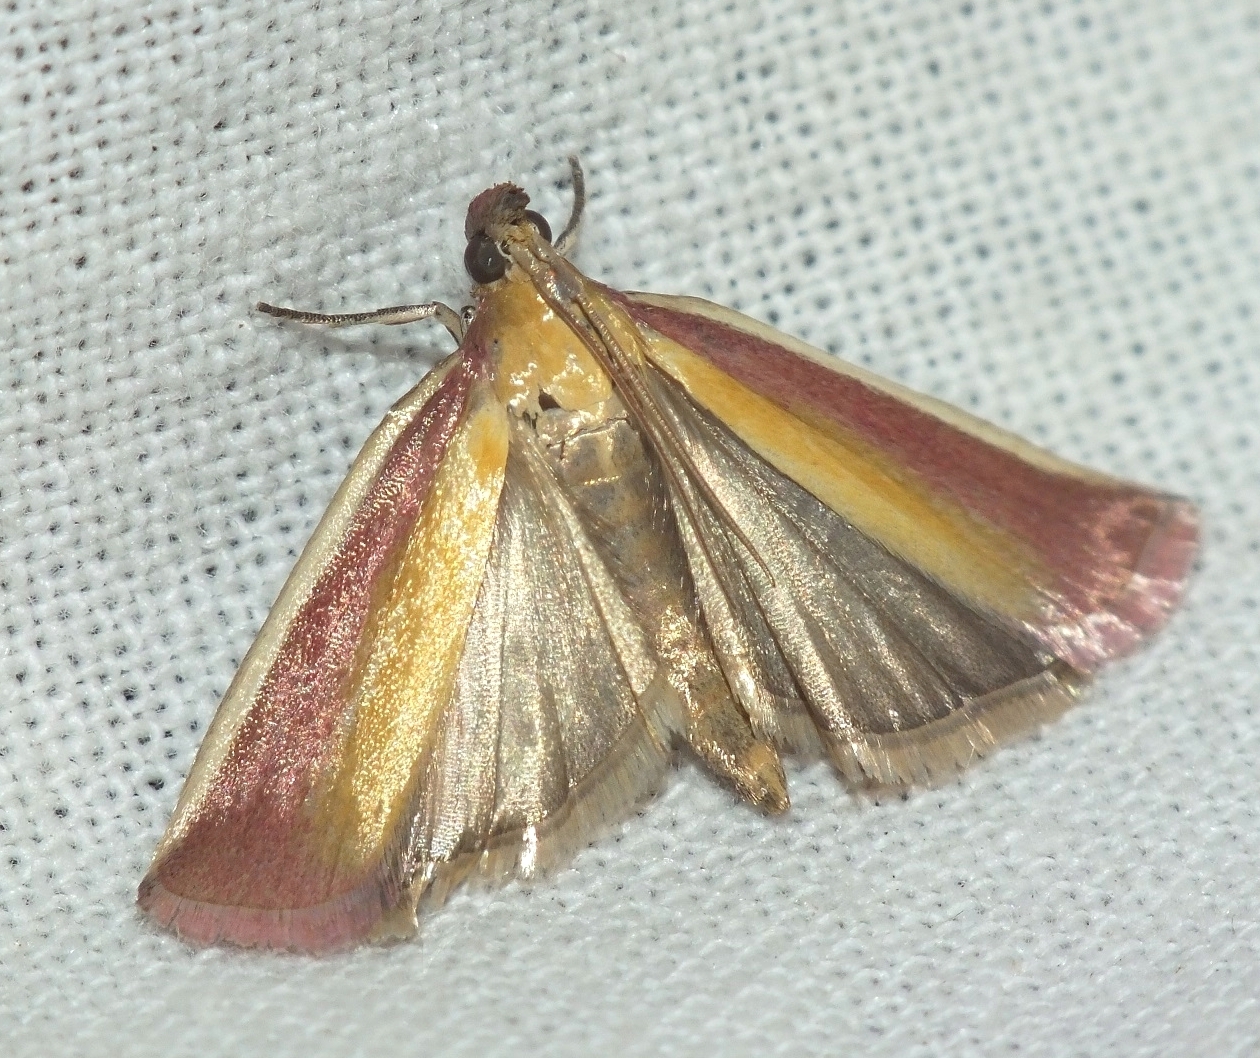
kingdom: Animalia
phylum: Arthropoda
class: Insecta
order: Lepidoptera
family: Pyralidae
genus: Oncocera
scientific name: Oncocera semirubella
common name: Rosy-striped knot-horn
